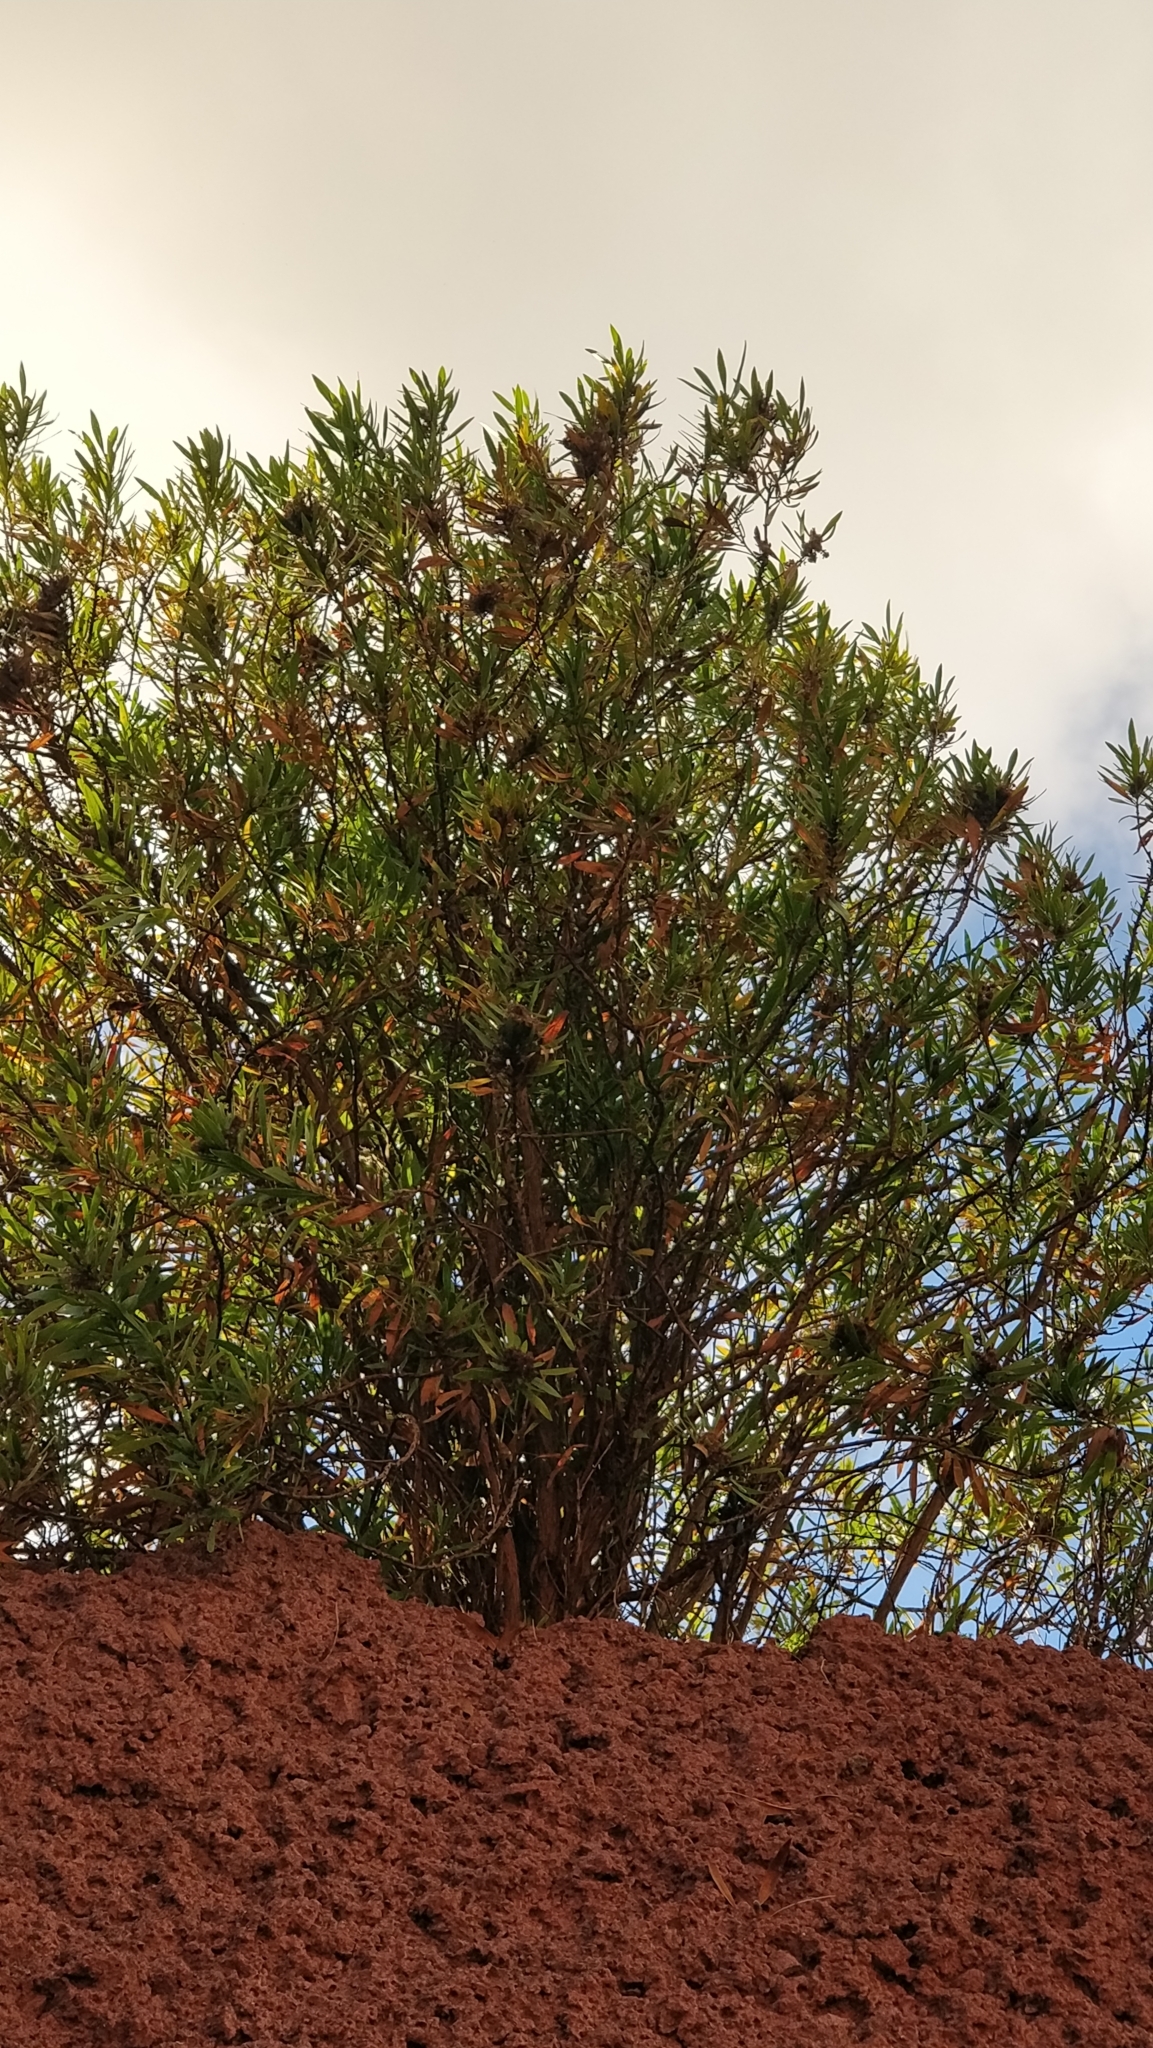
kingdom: Plantae
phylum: Tracheophyta
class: Magnoliopsida
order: Lamiales
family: Plantaginaceae
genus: Globularia
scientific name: Globularia salicina
